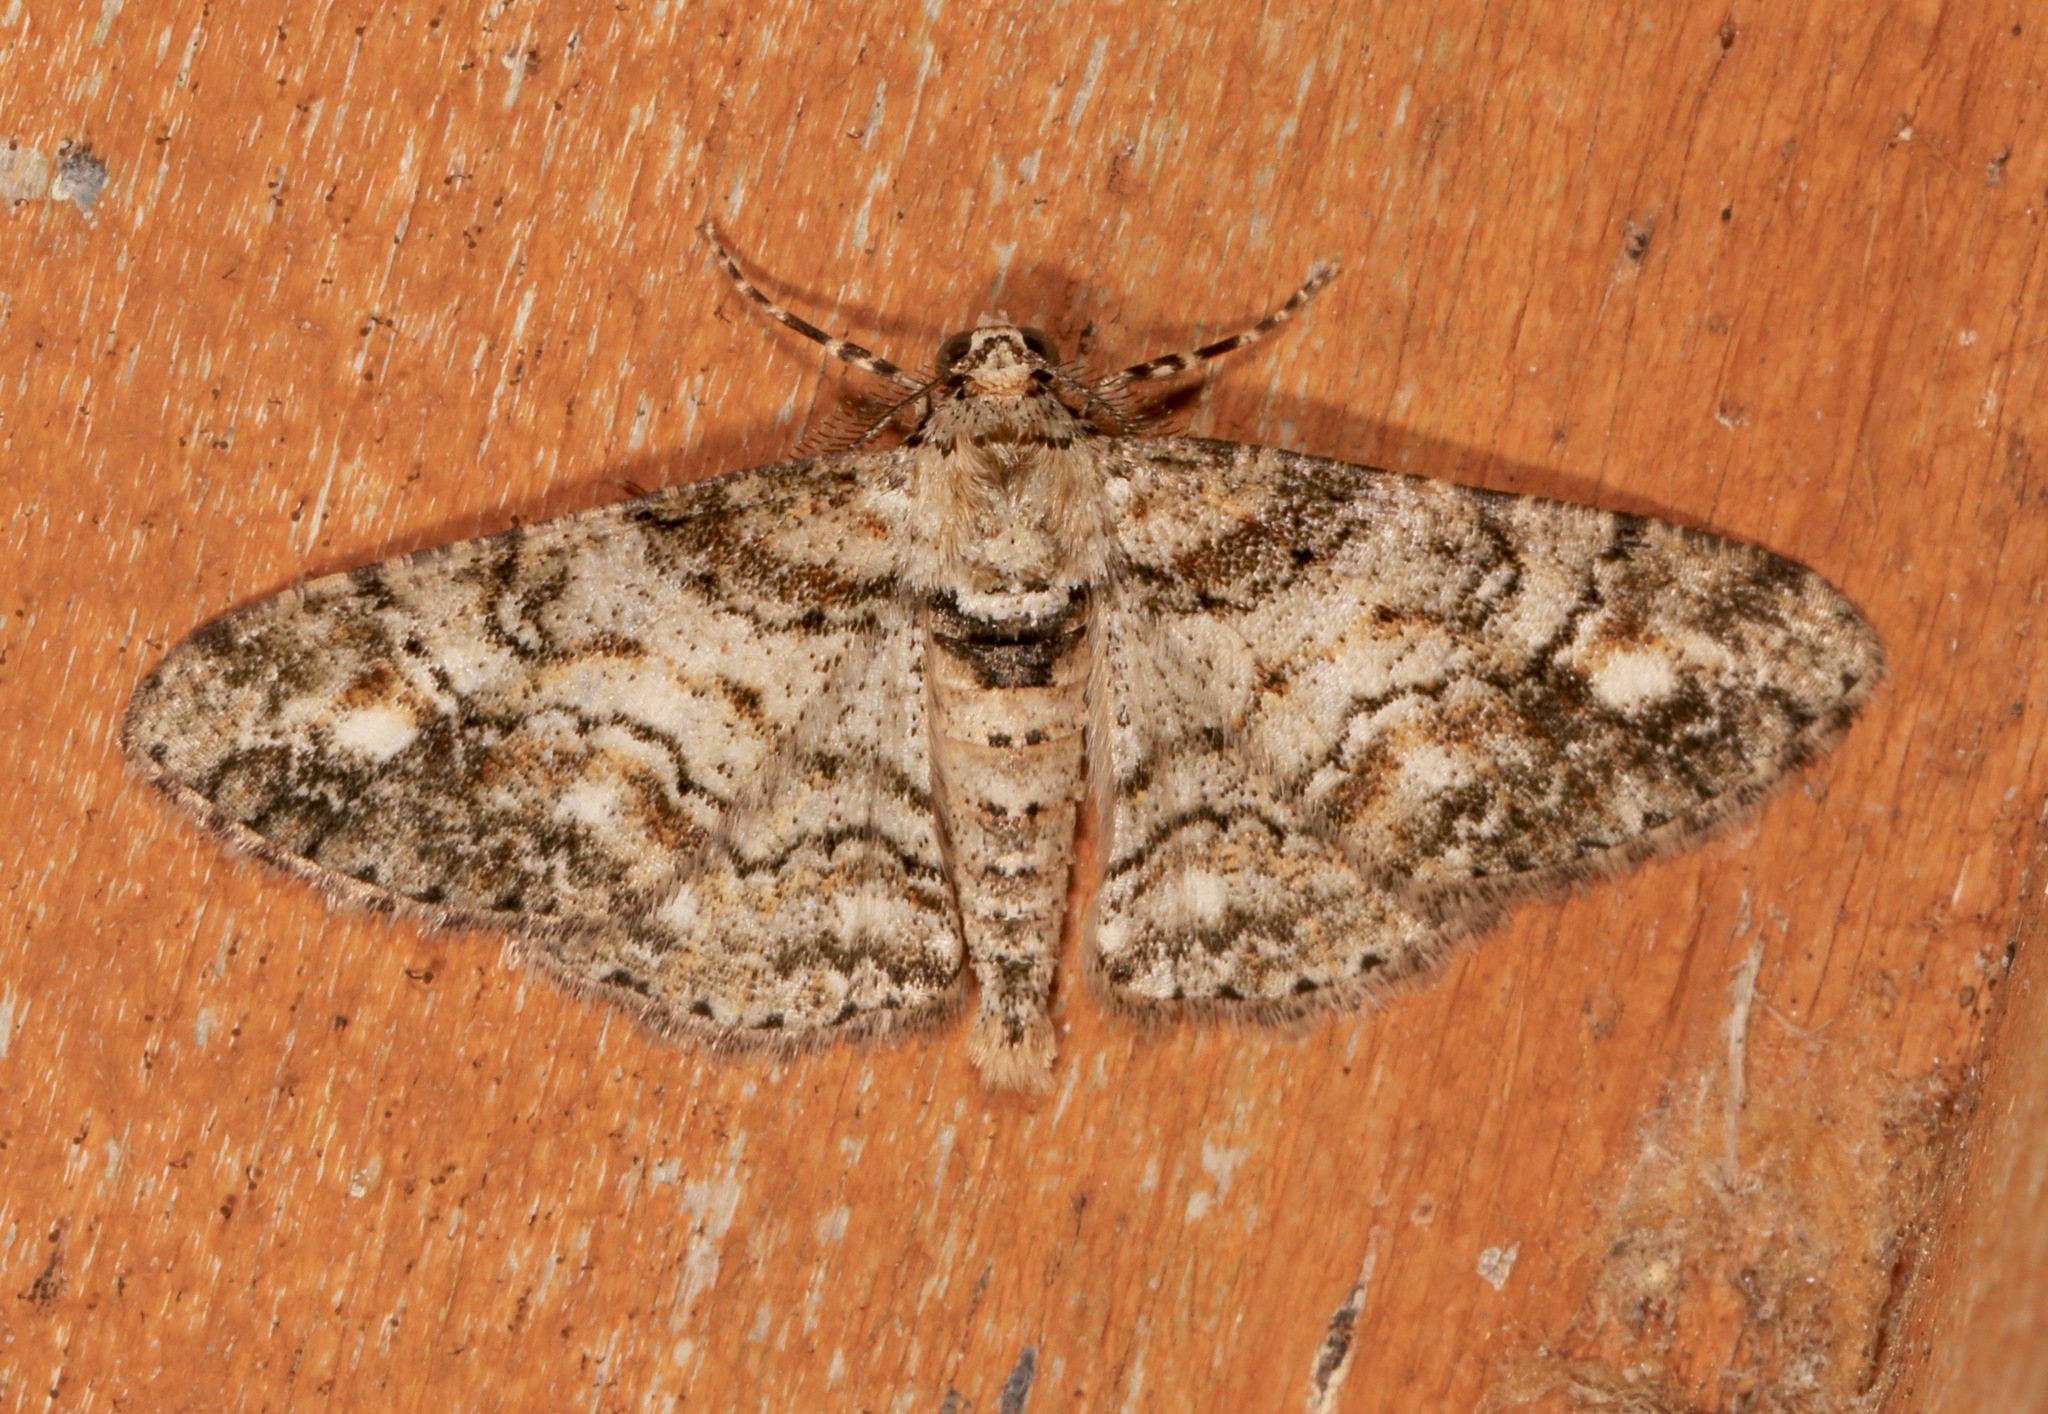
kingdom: Animalia
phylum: Arthropoda
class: Insecta
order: Lepidoptera
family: Geometridae
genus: Cleora
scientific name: Cleora sublunaria
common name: Double-lined gray
